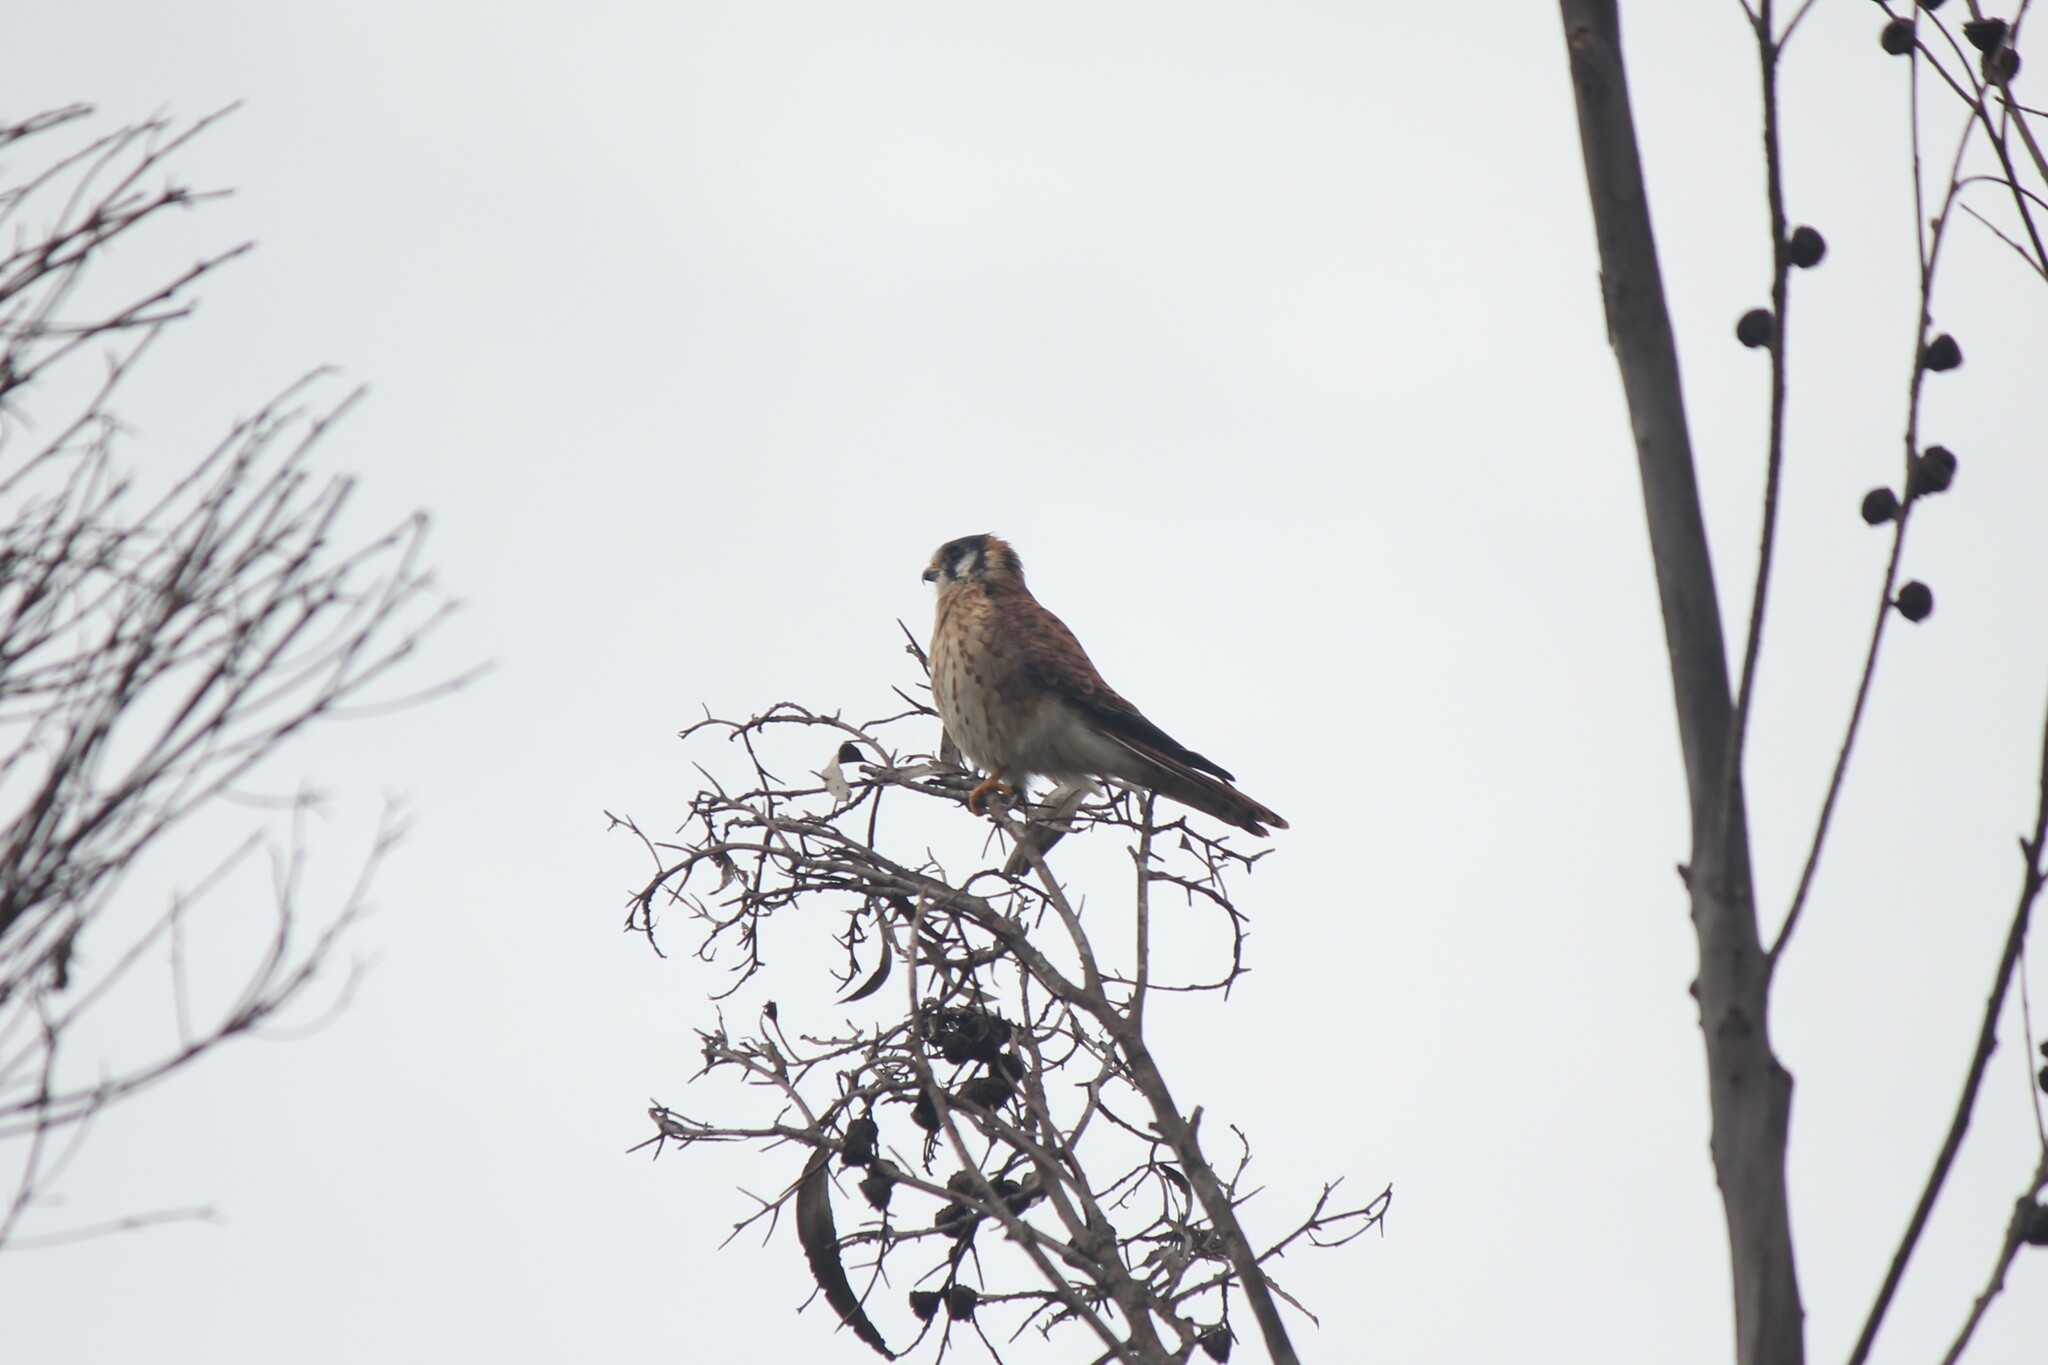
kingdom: Animalia
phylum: Chordata
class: Aves
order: Falconiformes
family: Falconidae
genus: Falco
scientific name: Falco sparverius
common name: American kestrel
